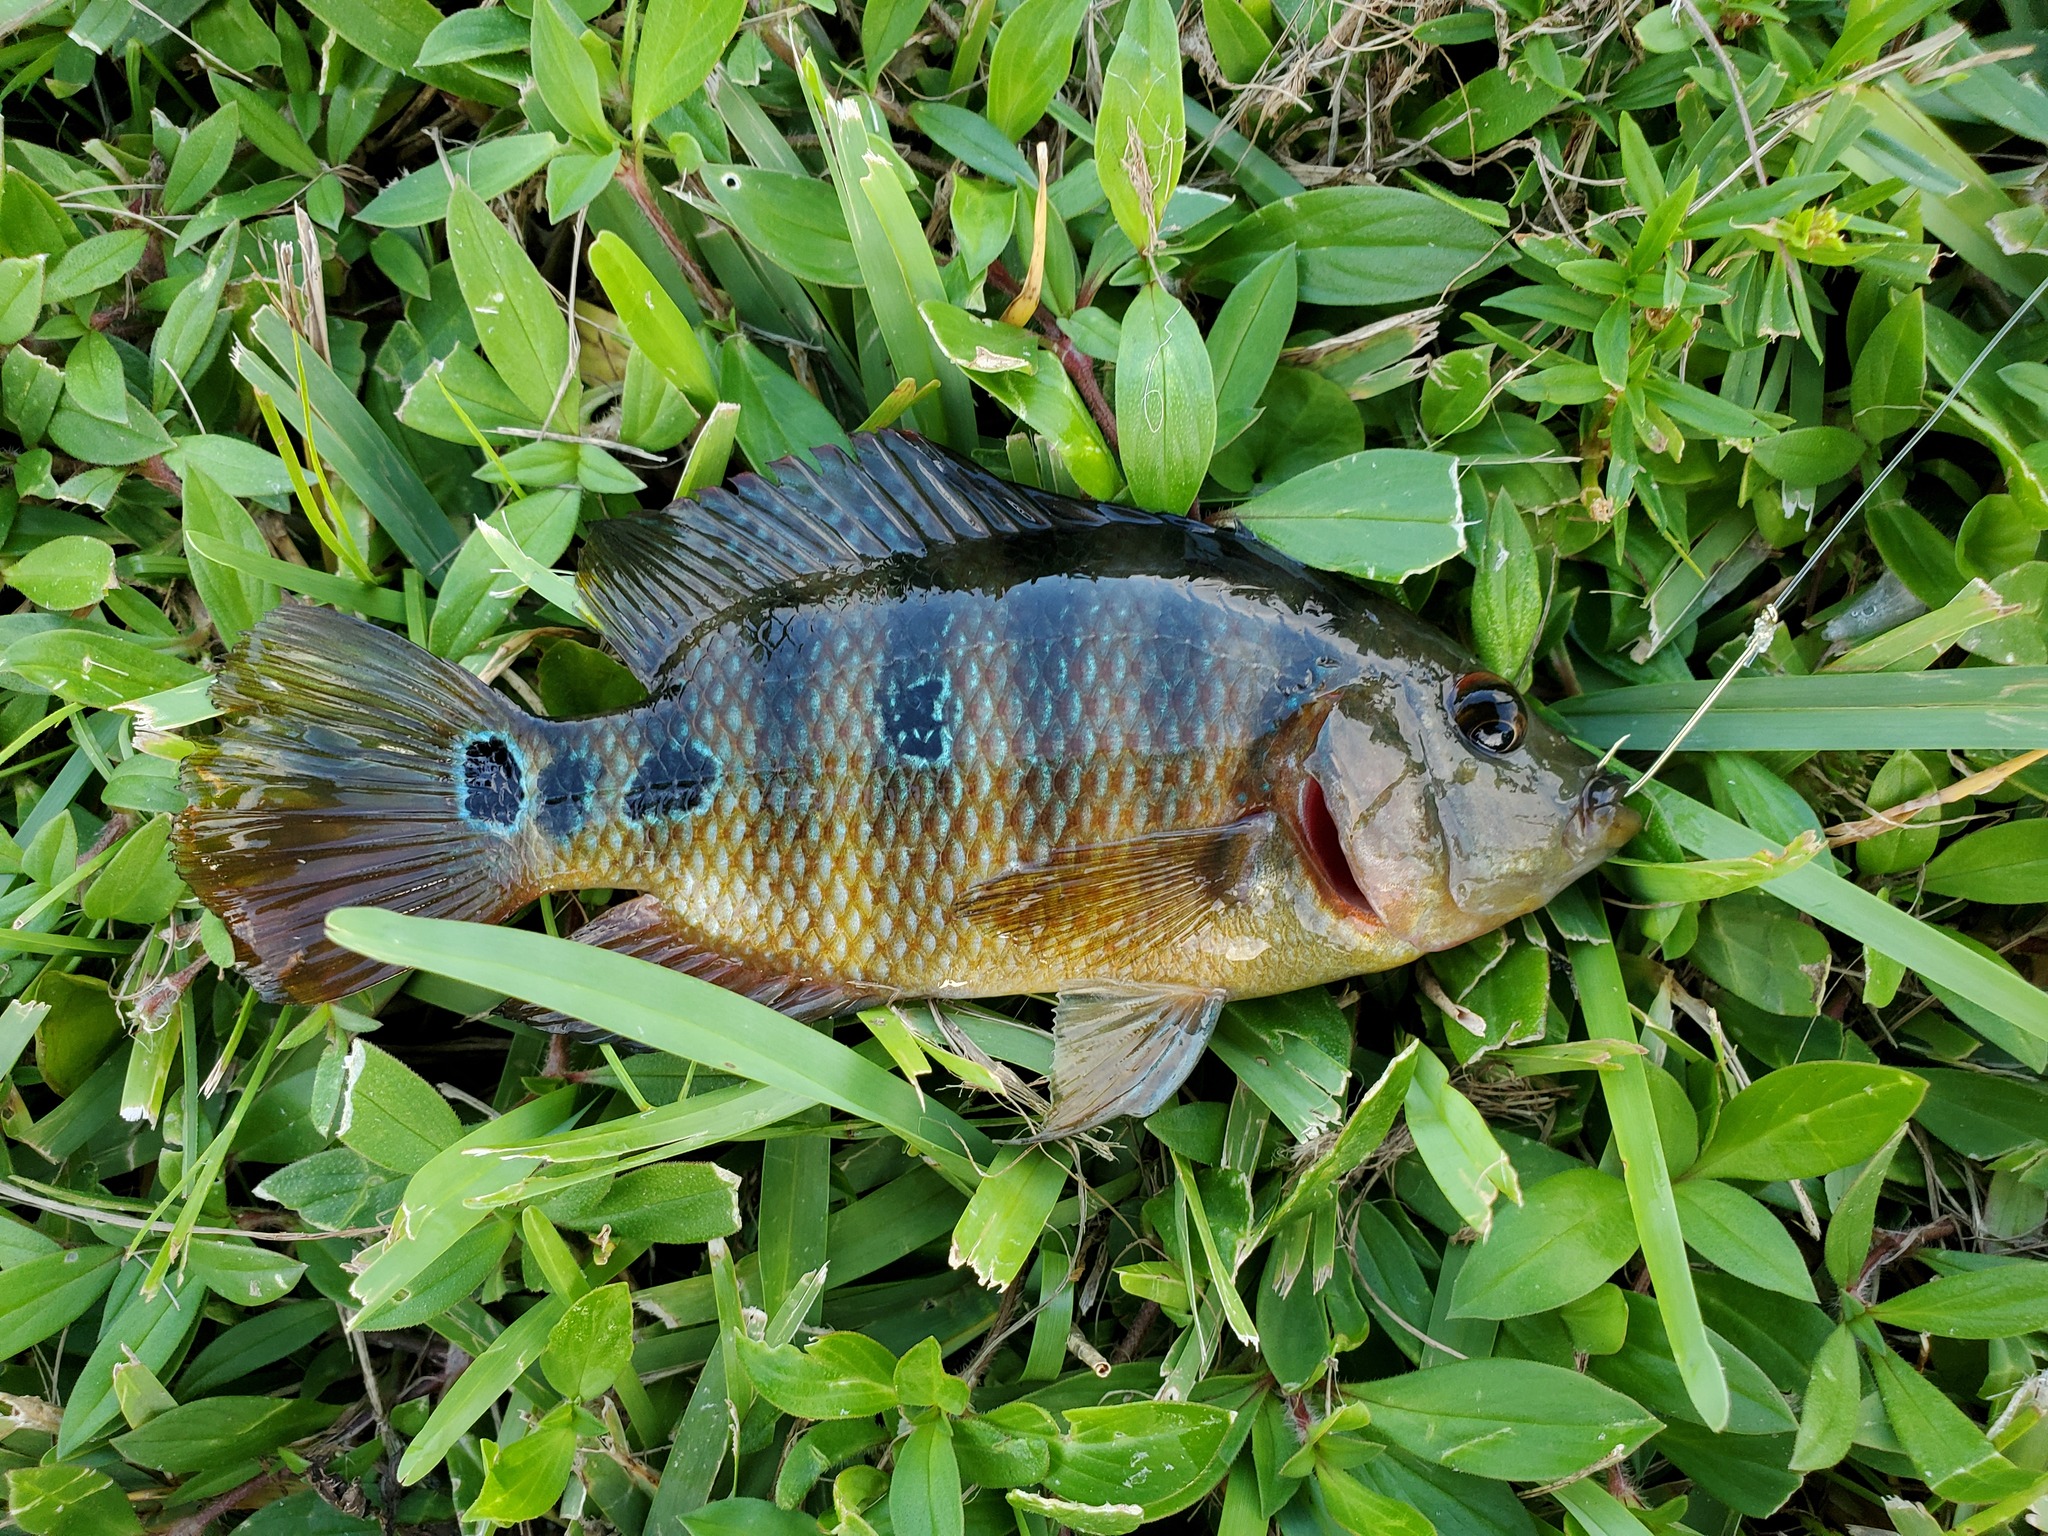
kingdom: Animalia
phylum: Chordata
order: Perciformes
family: Cichlidae
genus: Mayaheros
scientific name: Mayaheros urophthalmus
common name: Mayan cichlid
